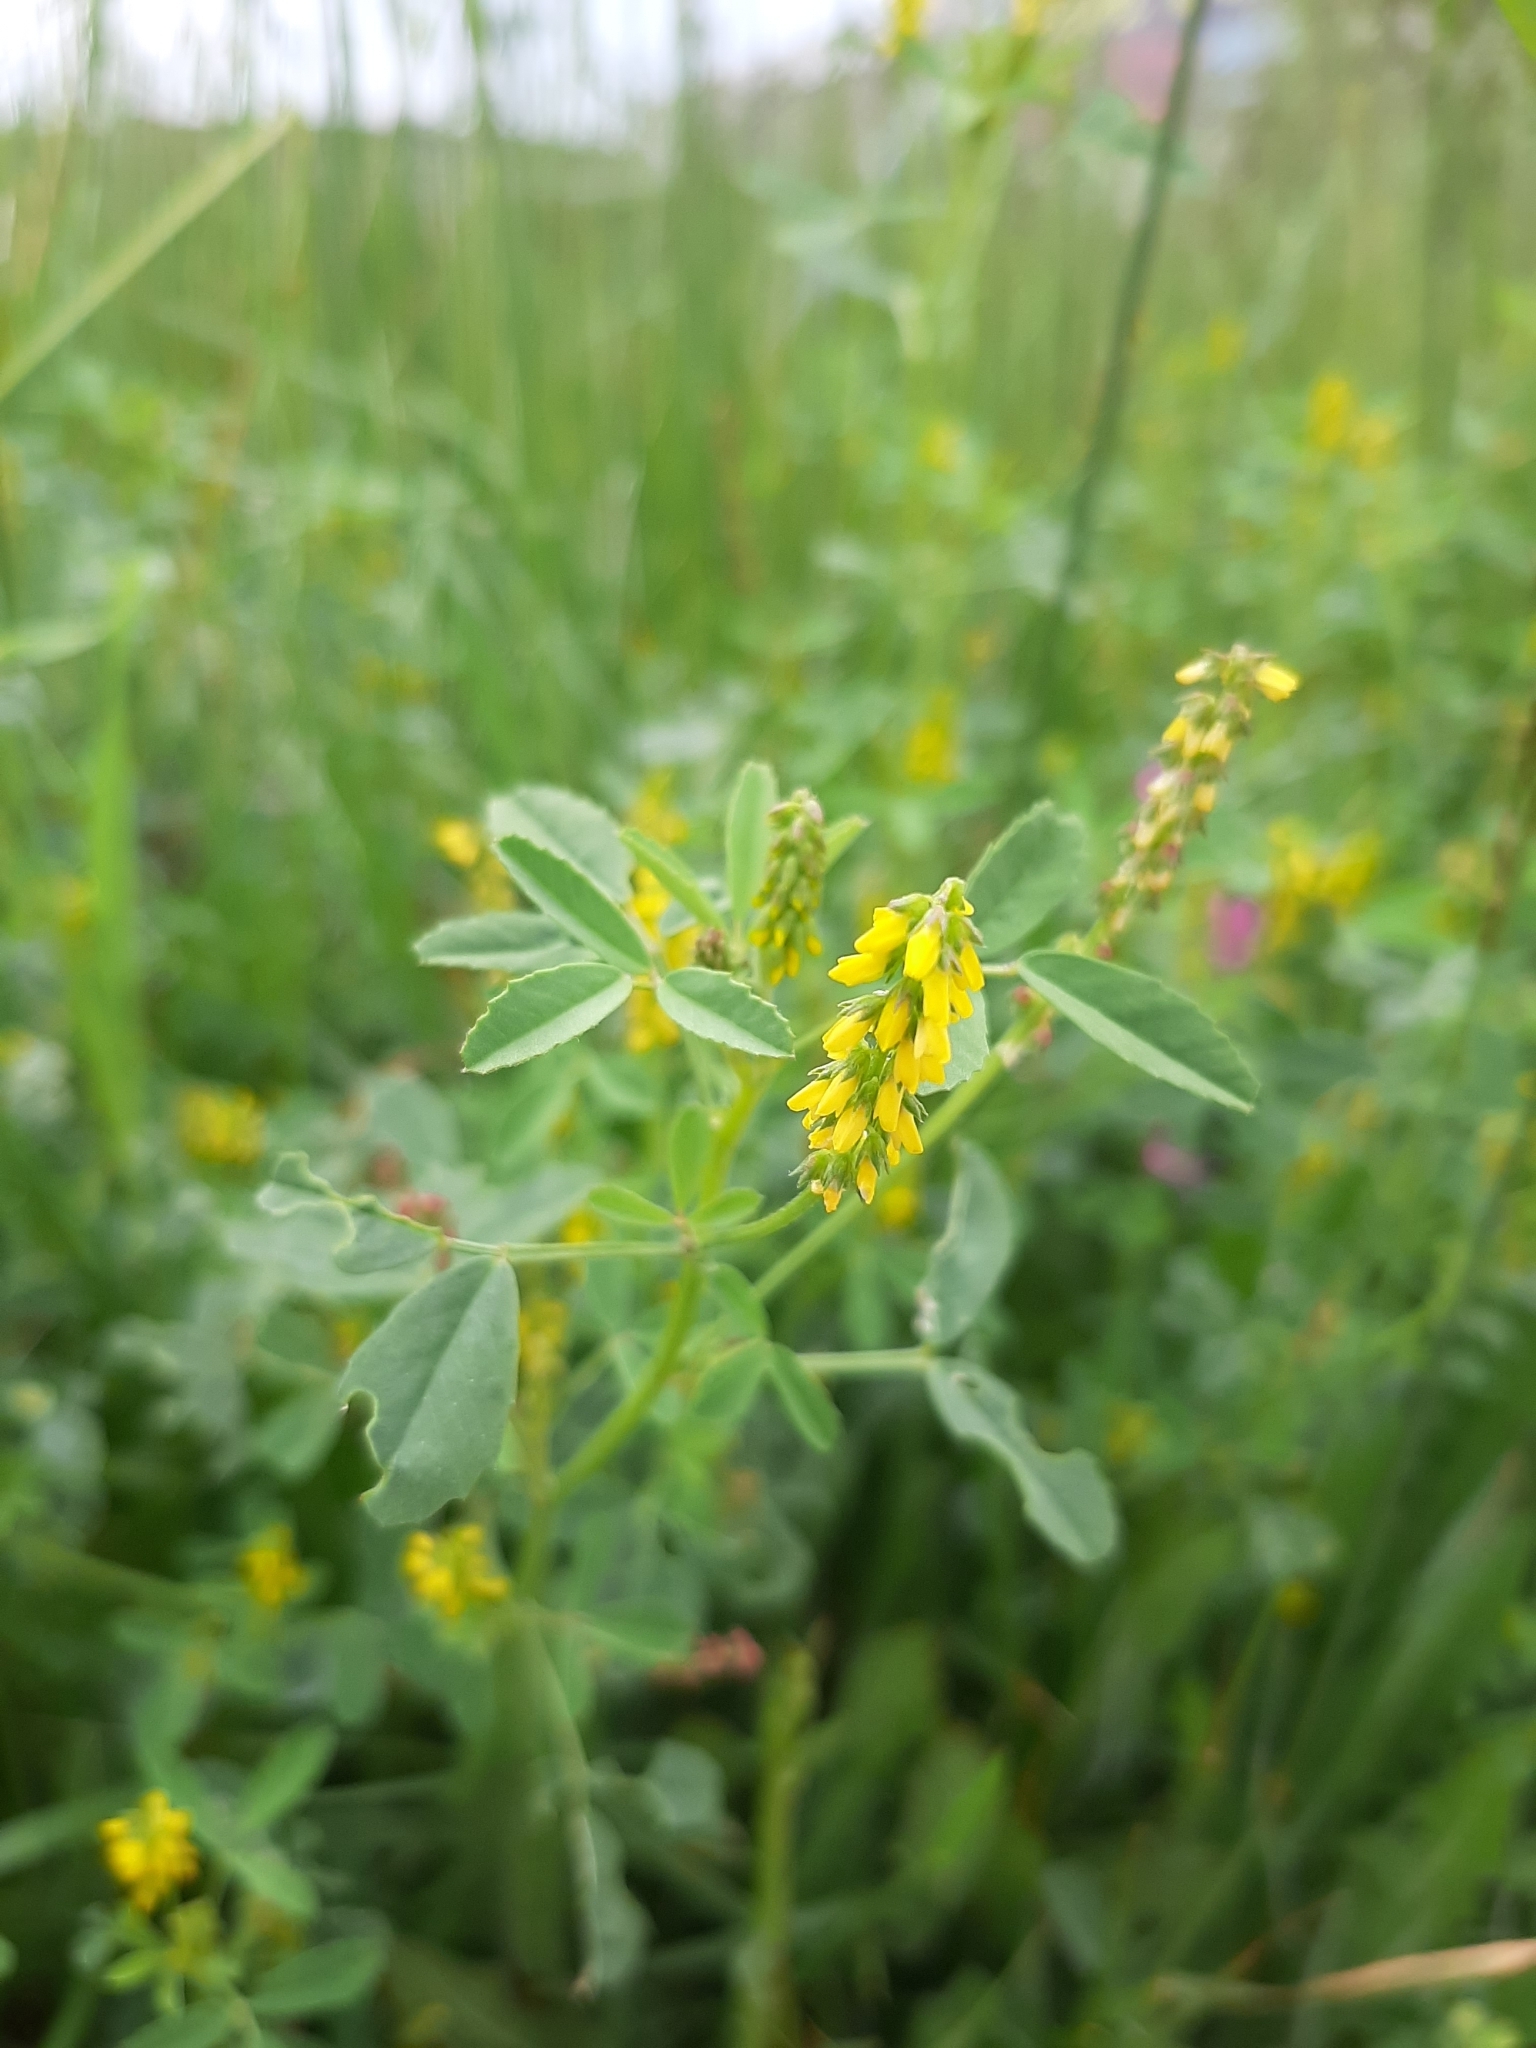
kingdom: Plantae
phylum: Tracheophyta
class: Magnoliopsida
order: Fabales
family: Fabaceae
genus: Melilotus
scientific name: Melilotus indicus
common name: Small melilot
